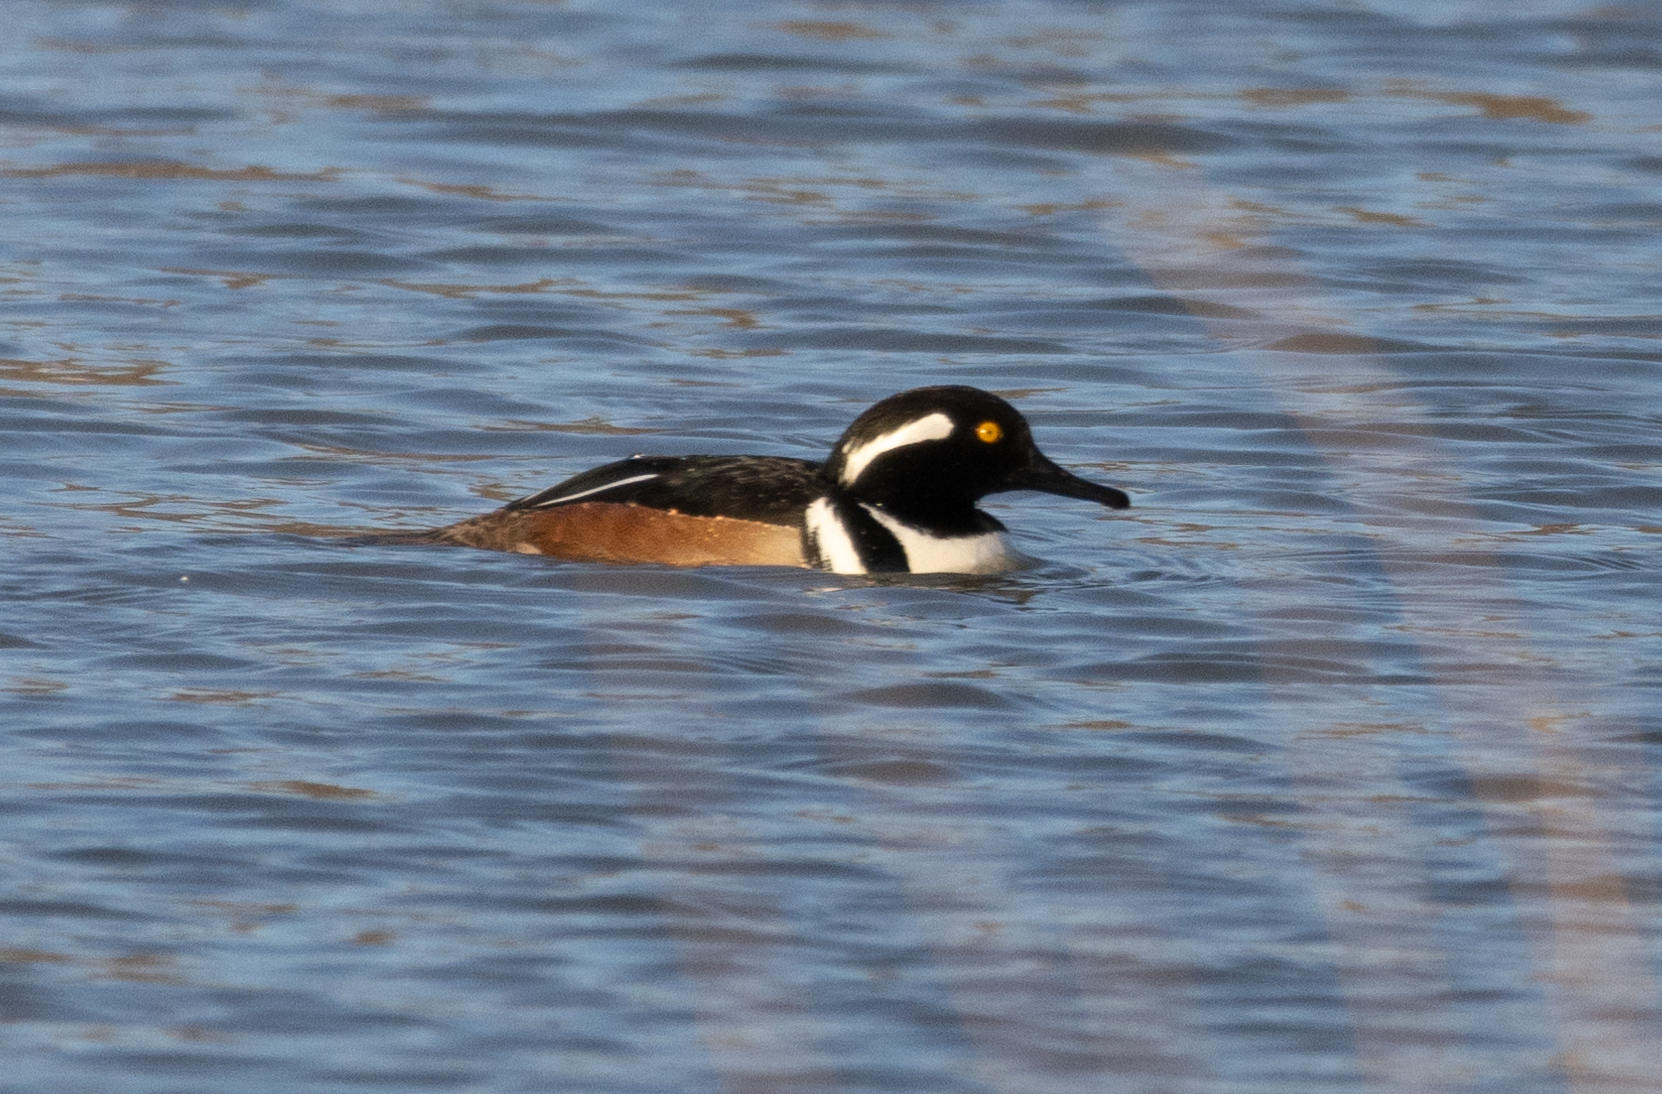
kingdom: Animalia
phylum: Chordata
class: Aves
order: Anseriformes
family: Anatidae
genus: Lophodytes
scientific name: Lophodytes cucullatus
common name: Hooded merganser
